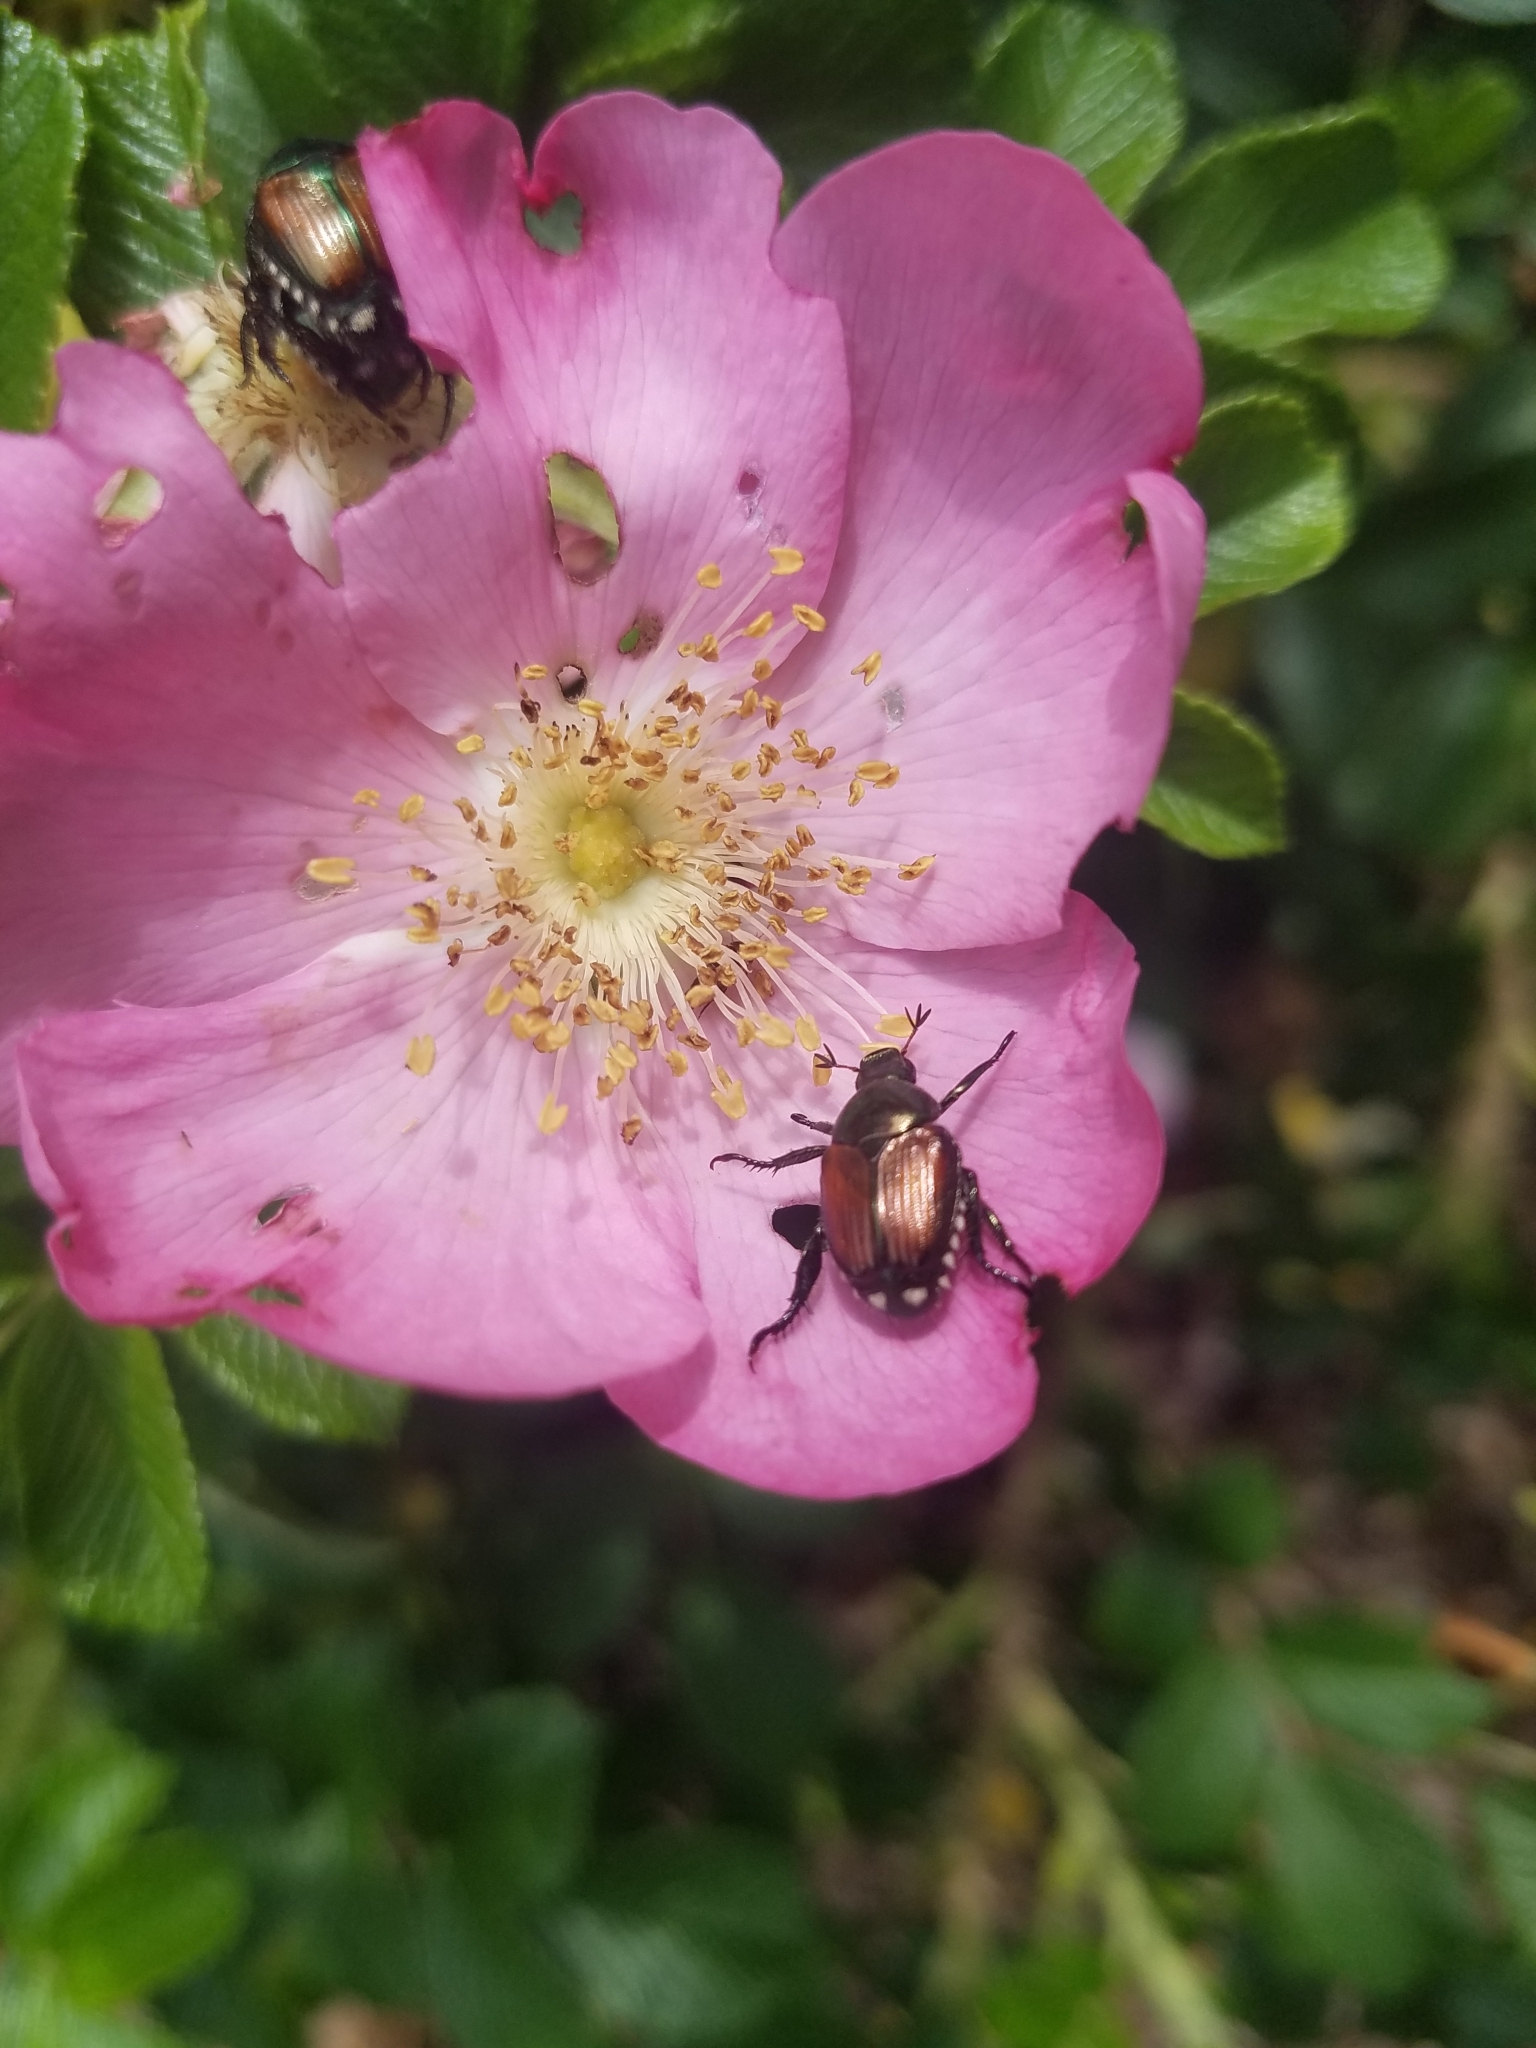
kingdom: Animalia
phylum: Arthropoda
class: Insecta
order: Coleoptera
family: Scarabaeidae
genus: Popillia
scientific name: Popillia japonica
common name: Japanese beetle
